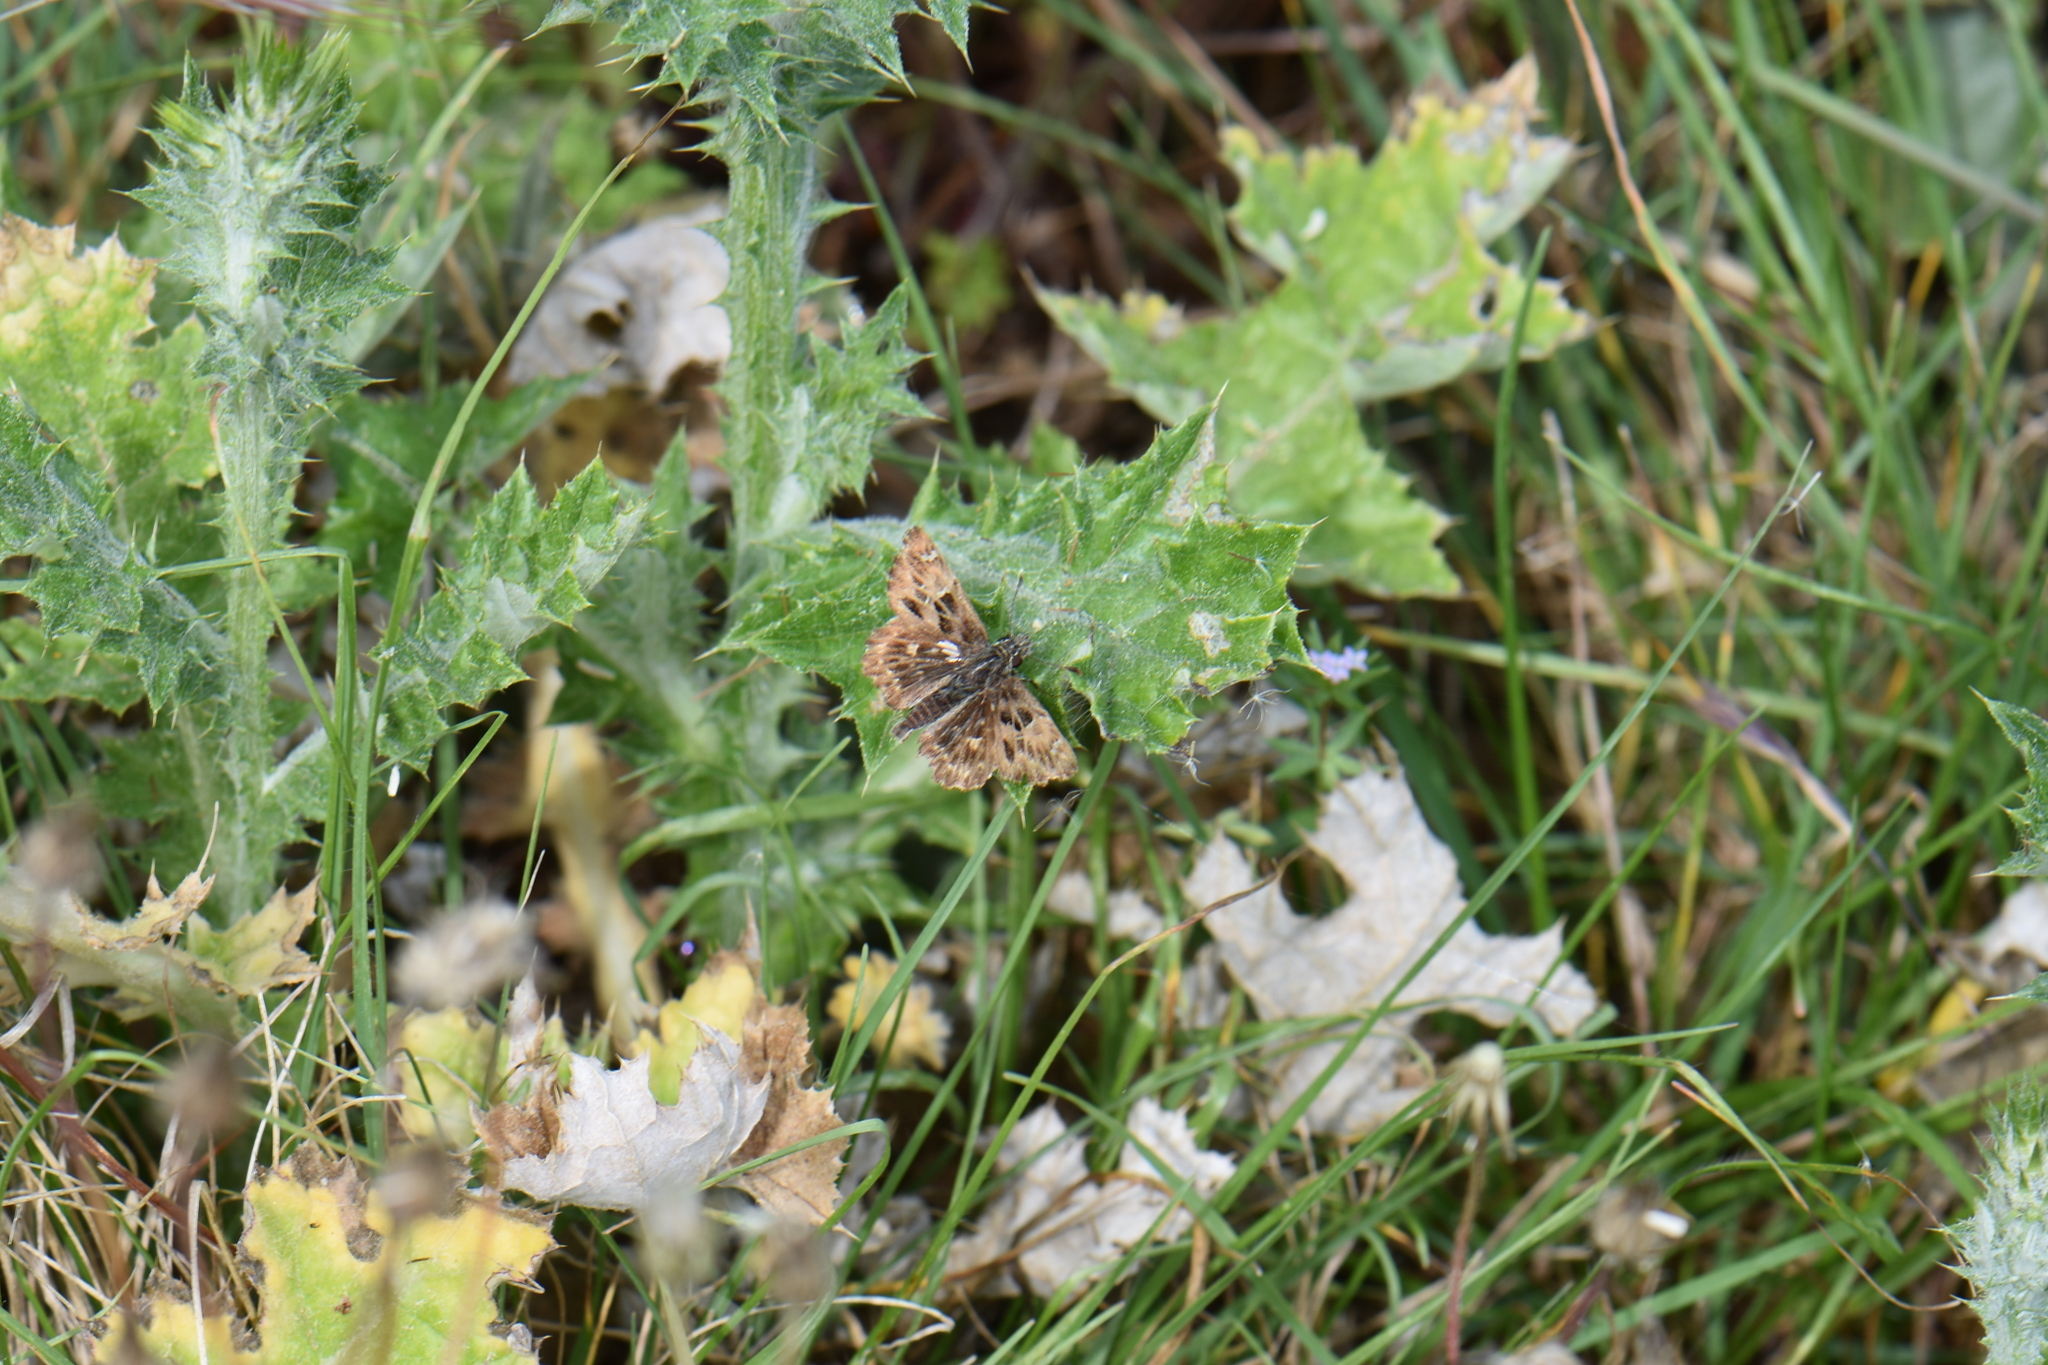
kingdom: Animalia
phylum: Arthropoda
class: Insecta
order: Lepidoptera
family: Hesperiidae
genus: Carcharodus
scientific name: Carcharodus alceae
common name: Mallow skipper
